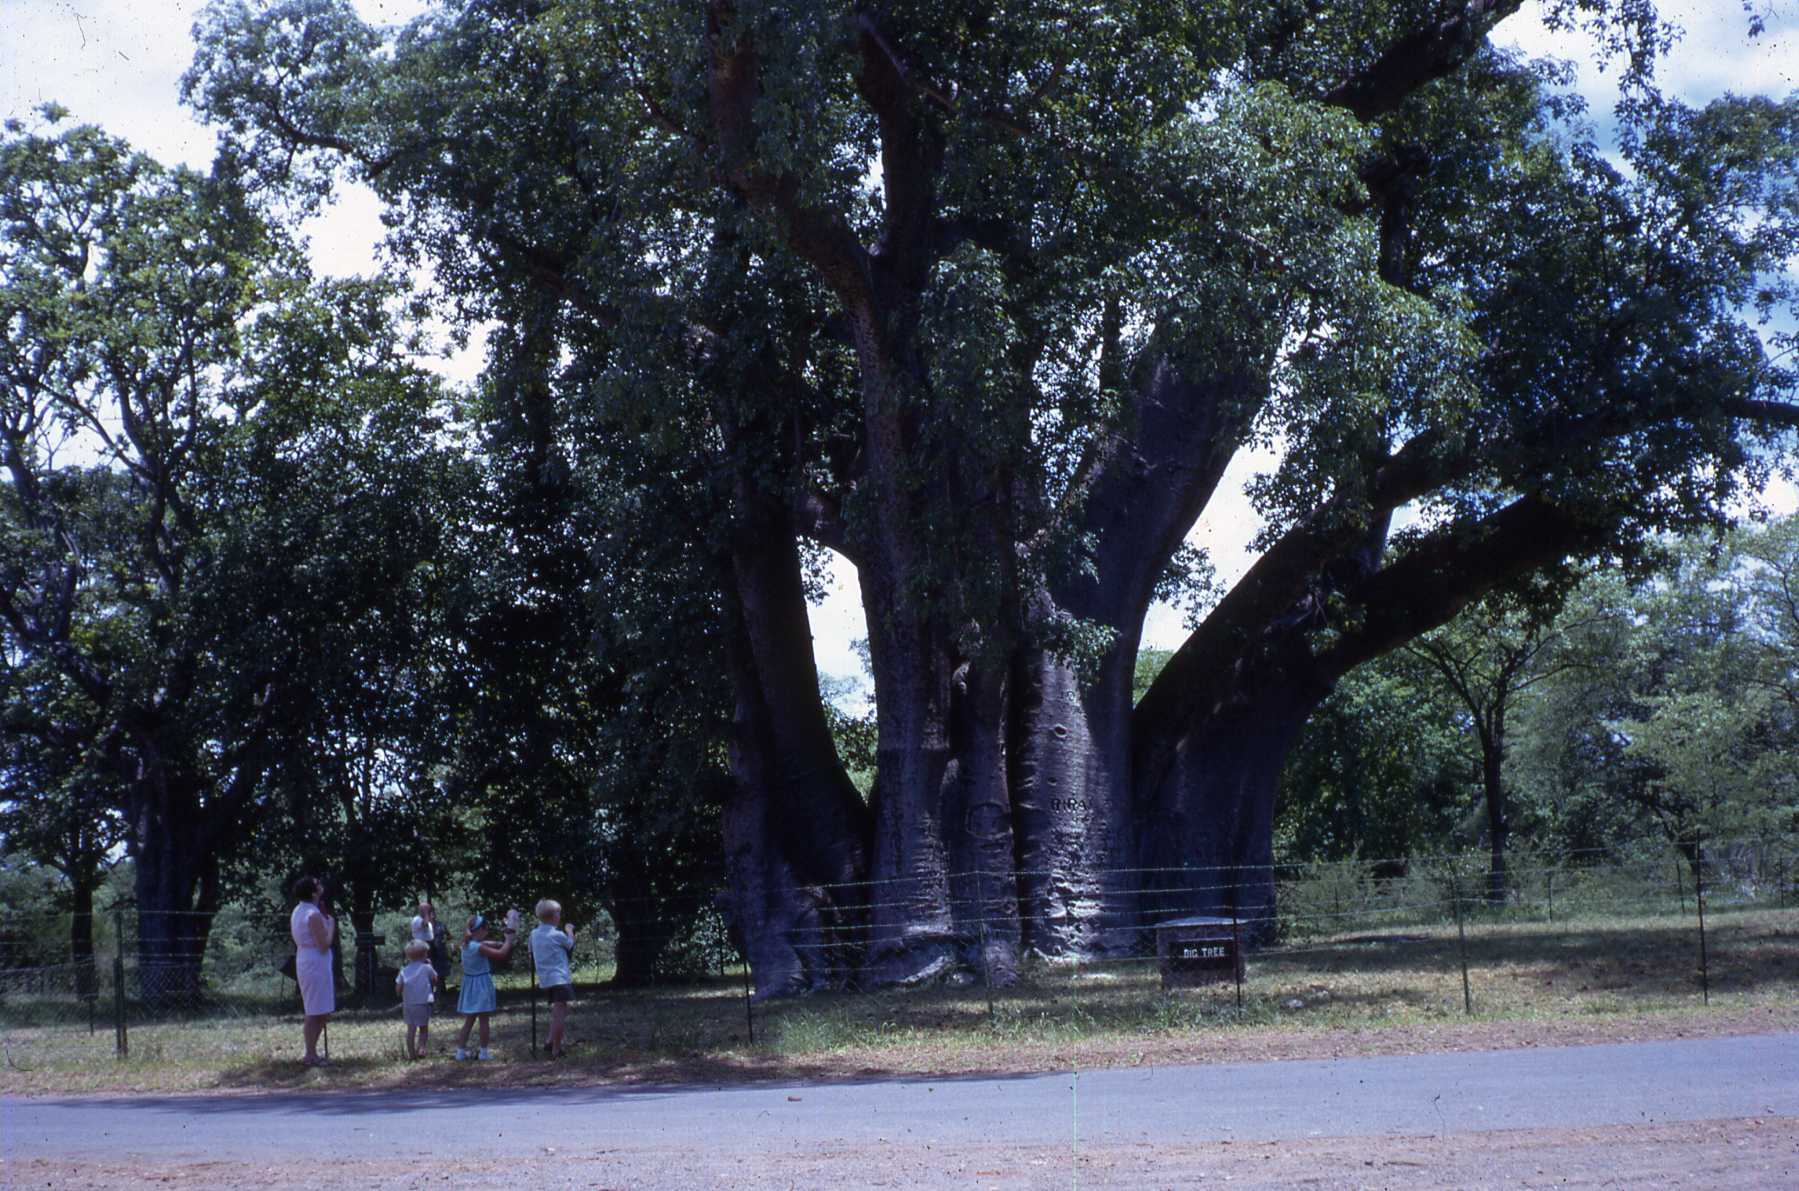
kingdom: Plantae
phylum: Tracheophyta
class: Magnoliopsida
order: Malvales
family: Malvaceae
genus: Adansonia
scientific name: Adansonia digitata
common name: Dead-rat-tree
